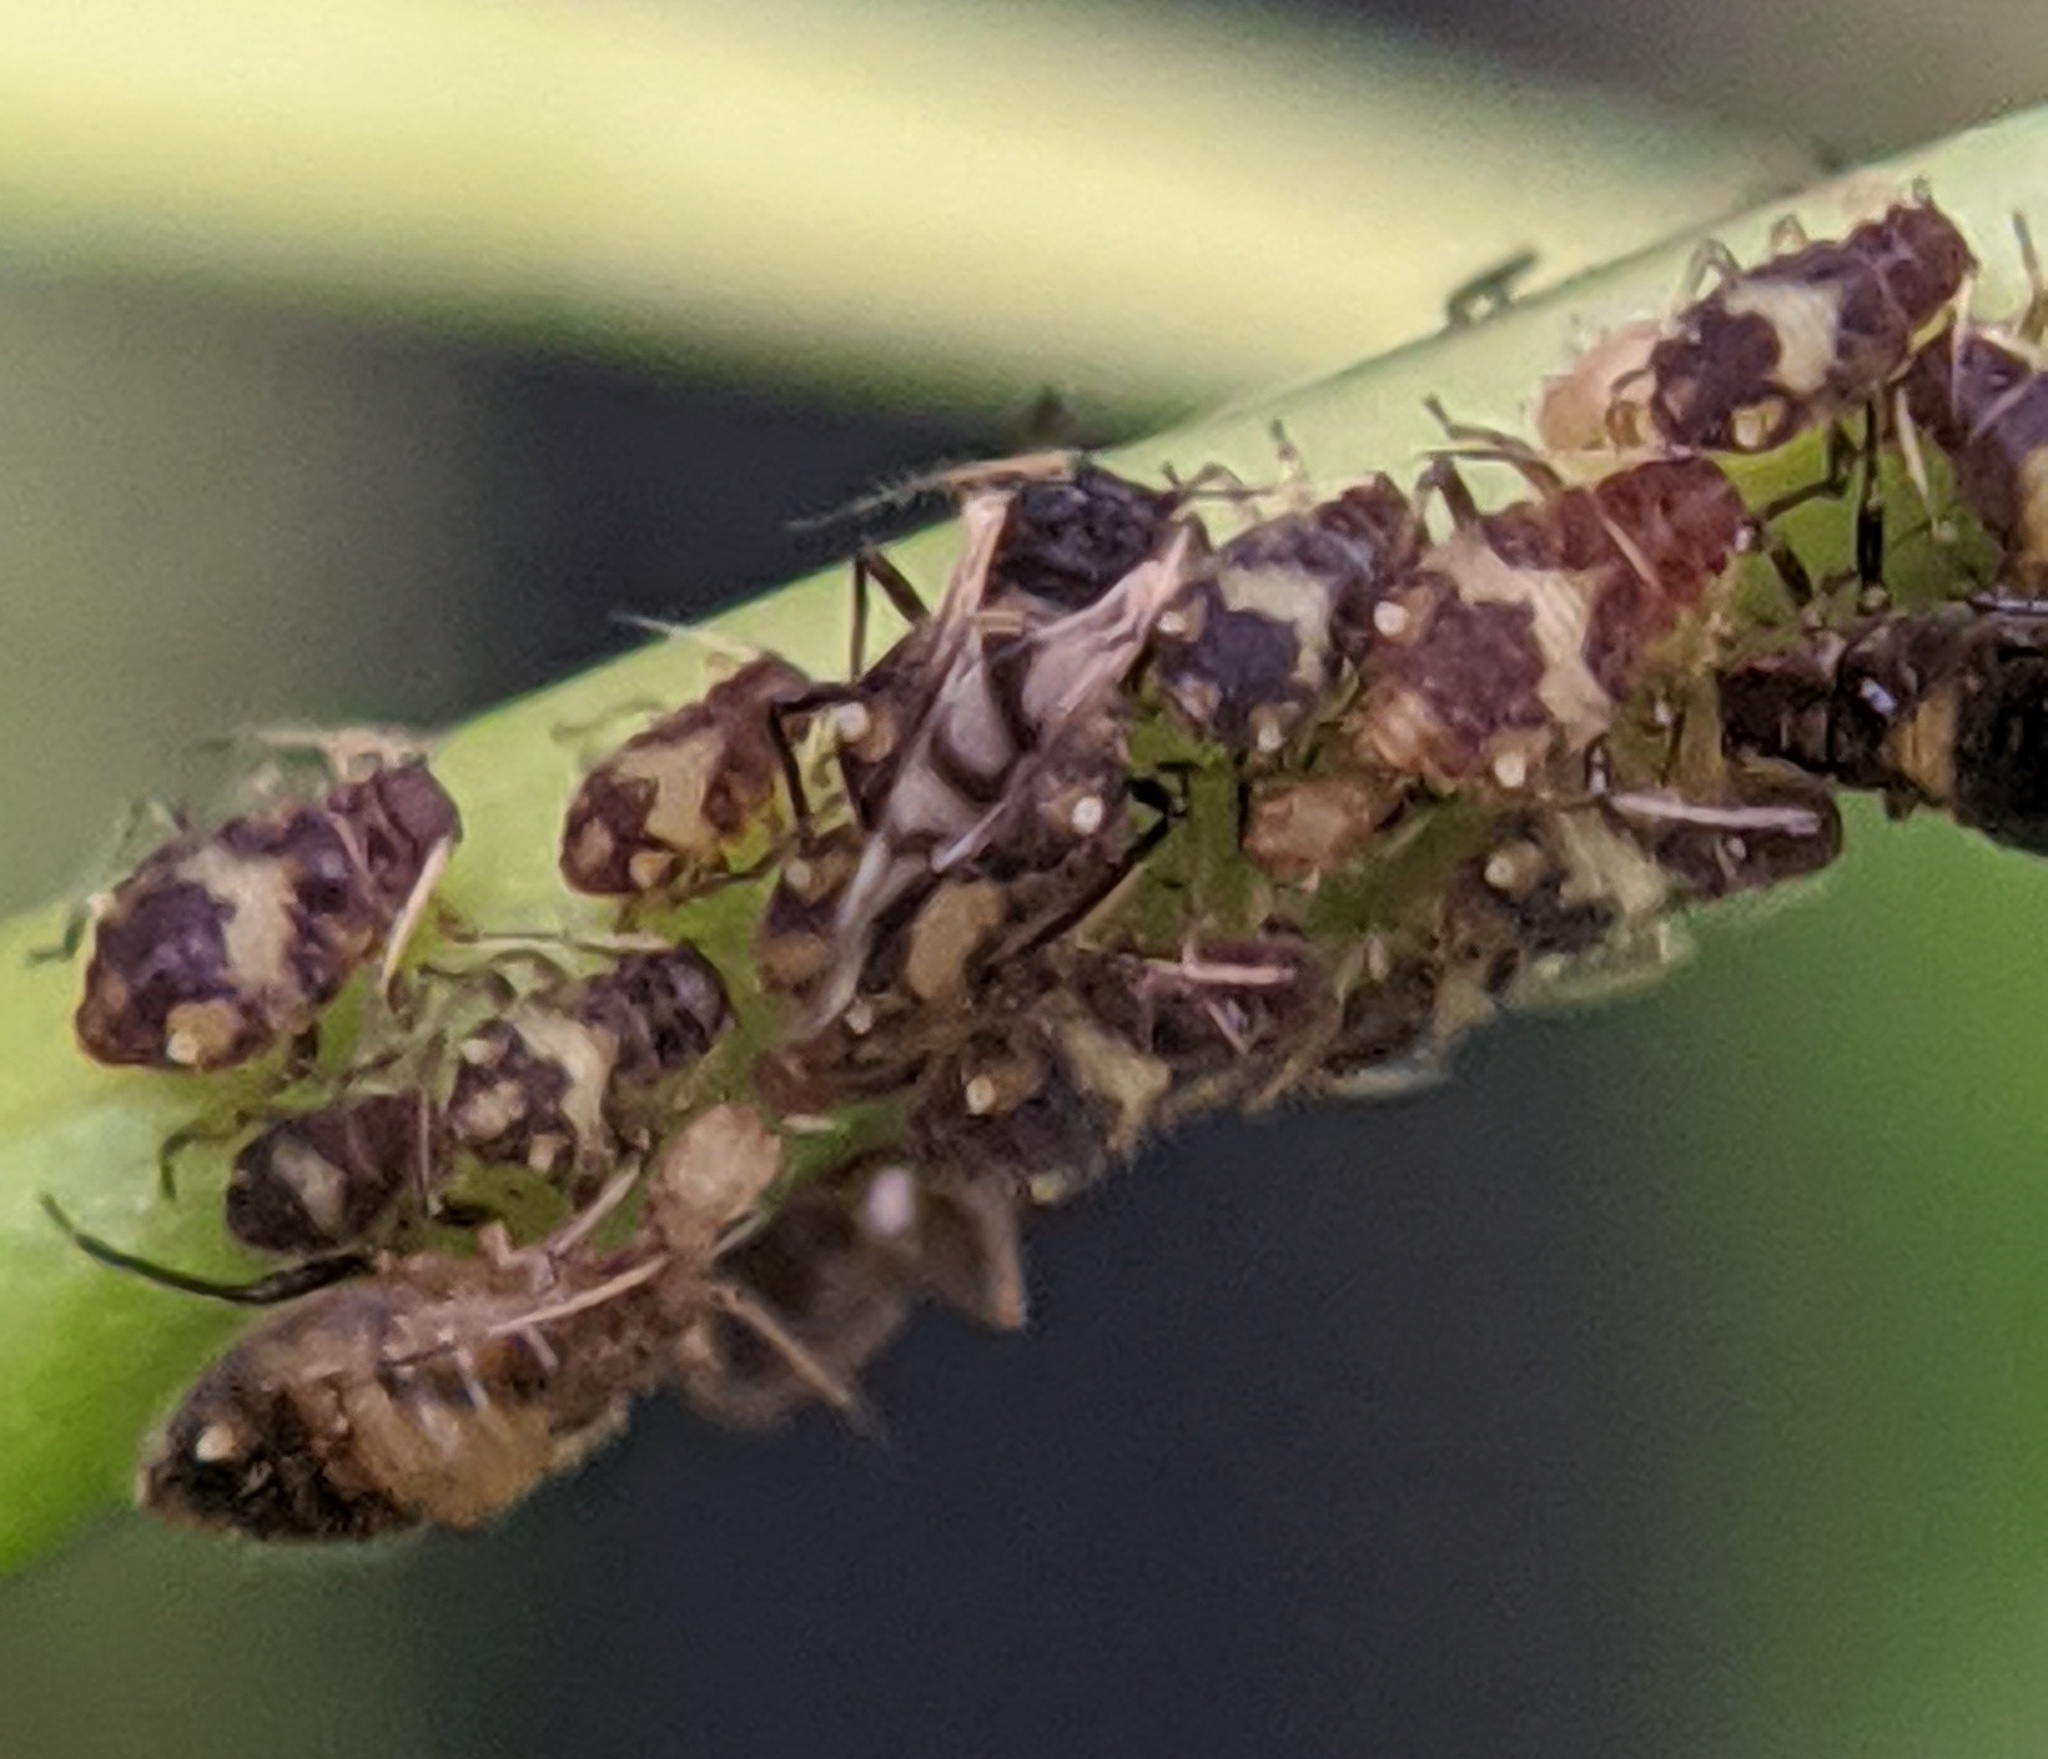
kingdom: Animalia
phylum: Arthropoda
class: Insecta
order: Hemiptera
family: Aphididae
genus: Chaitophorus
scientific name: Chaitophorus populicola
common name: Smokywinged poplar aphid
